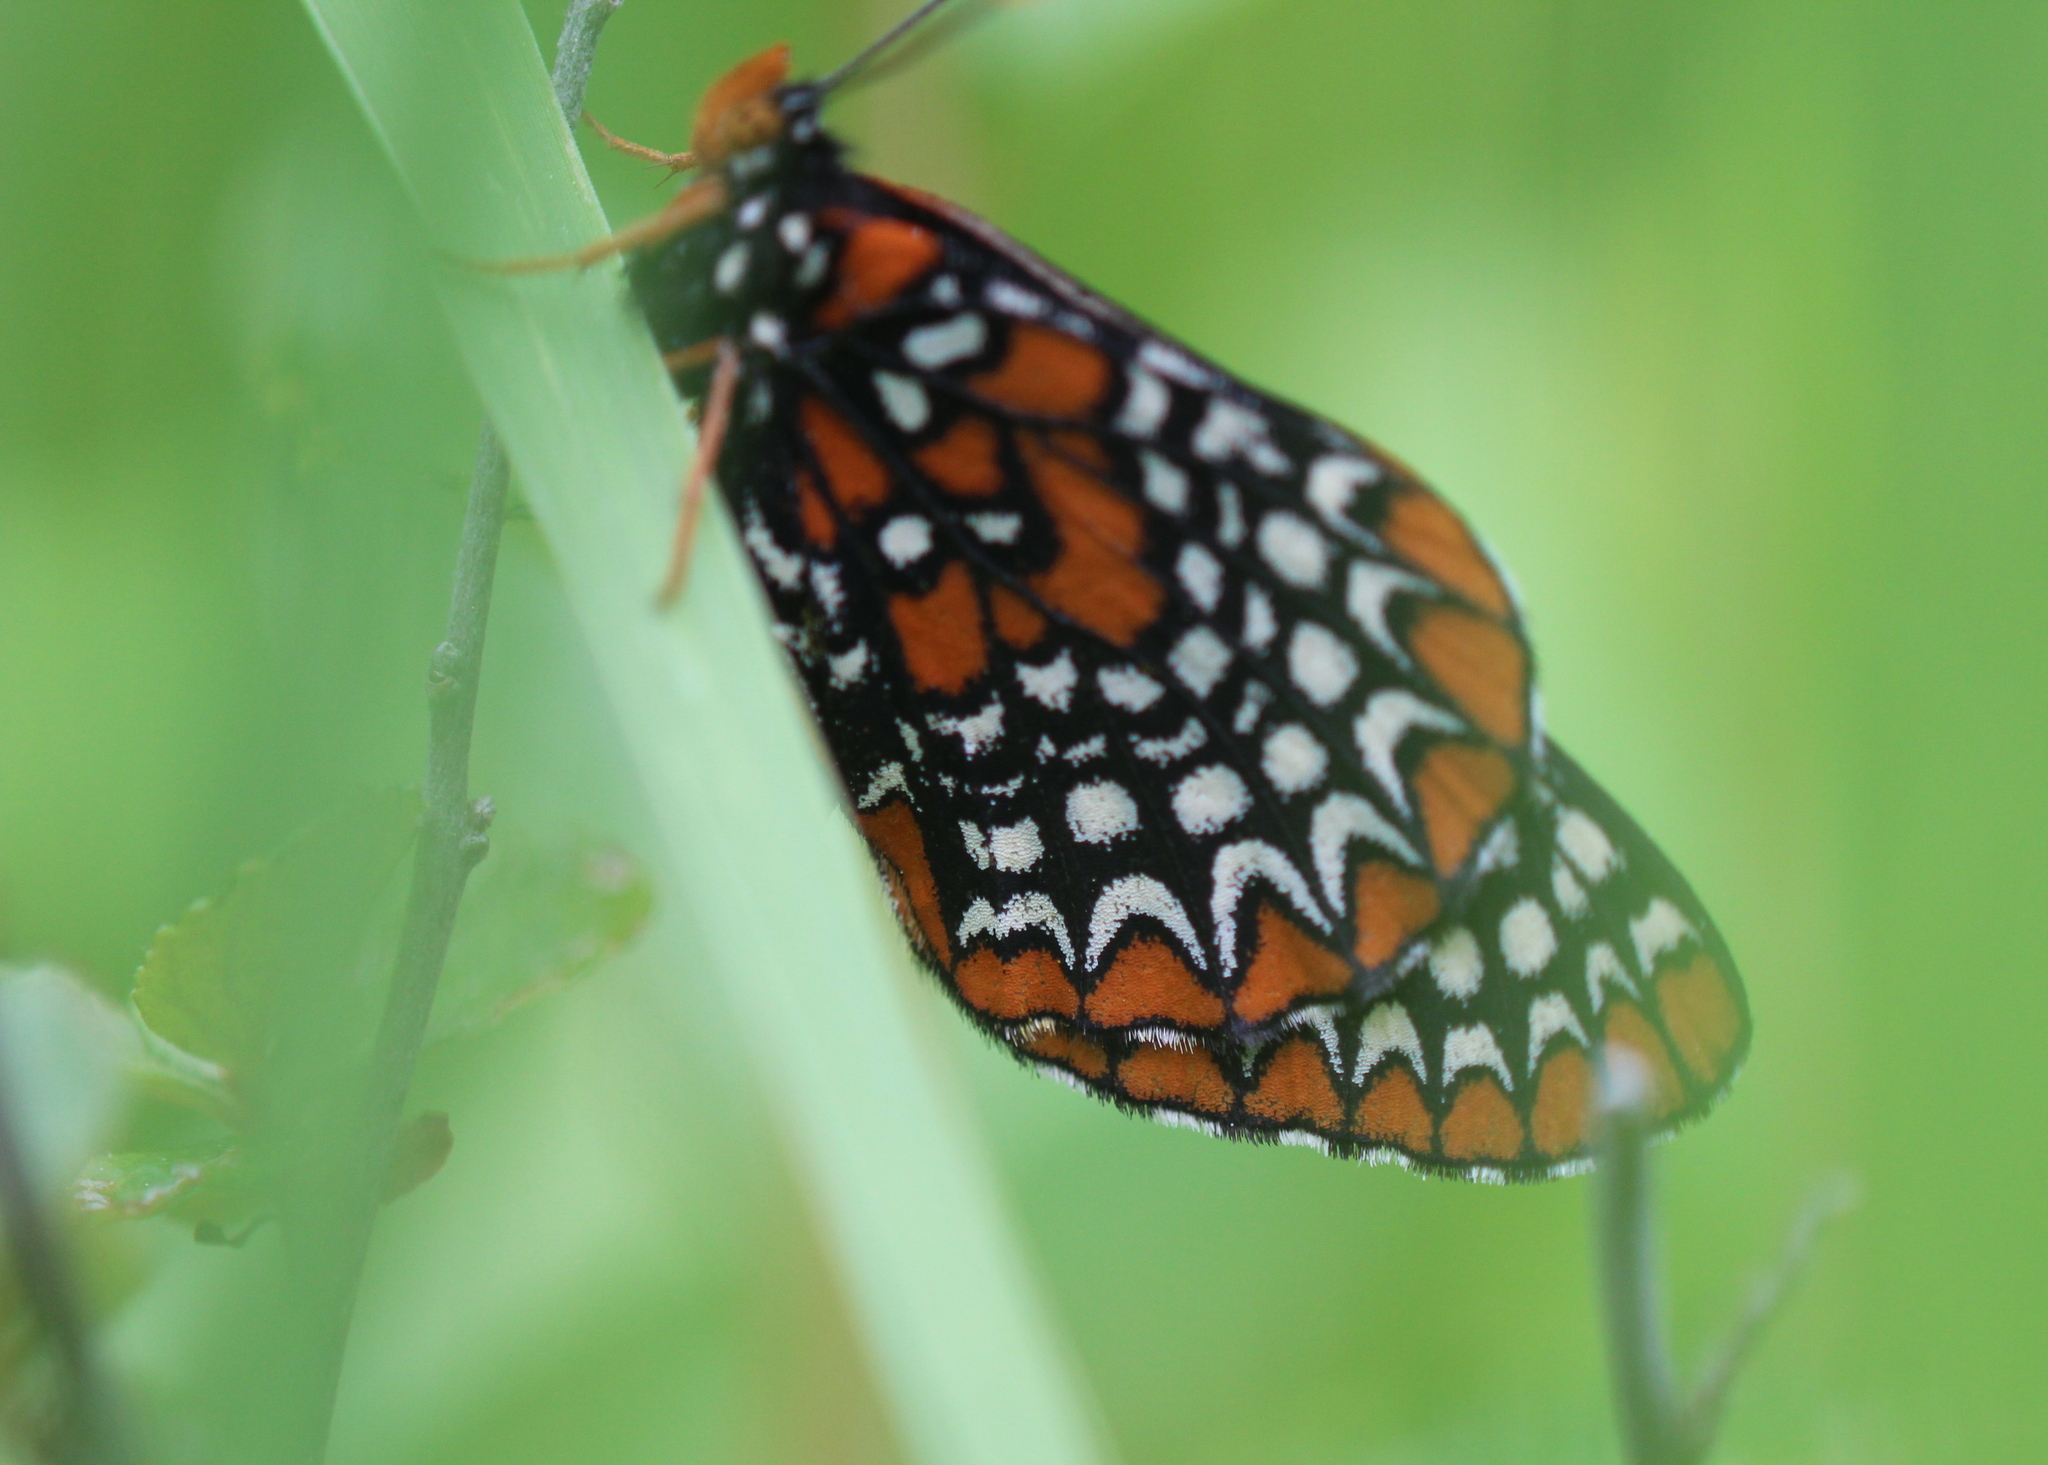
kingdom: Animalia
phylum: Arthropoda
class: Insecta
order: Lepidoptera
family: Nymphalidae
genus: Euphydryas
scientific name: Euphydryas phaeton
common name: Baltimore checkerspot
